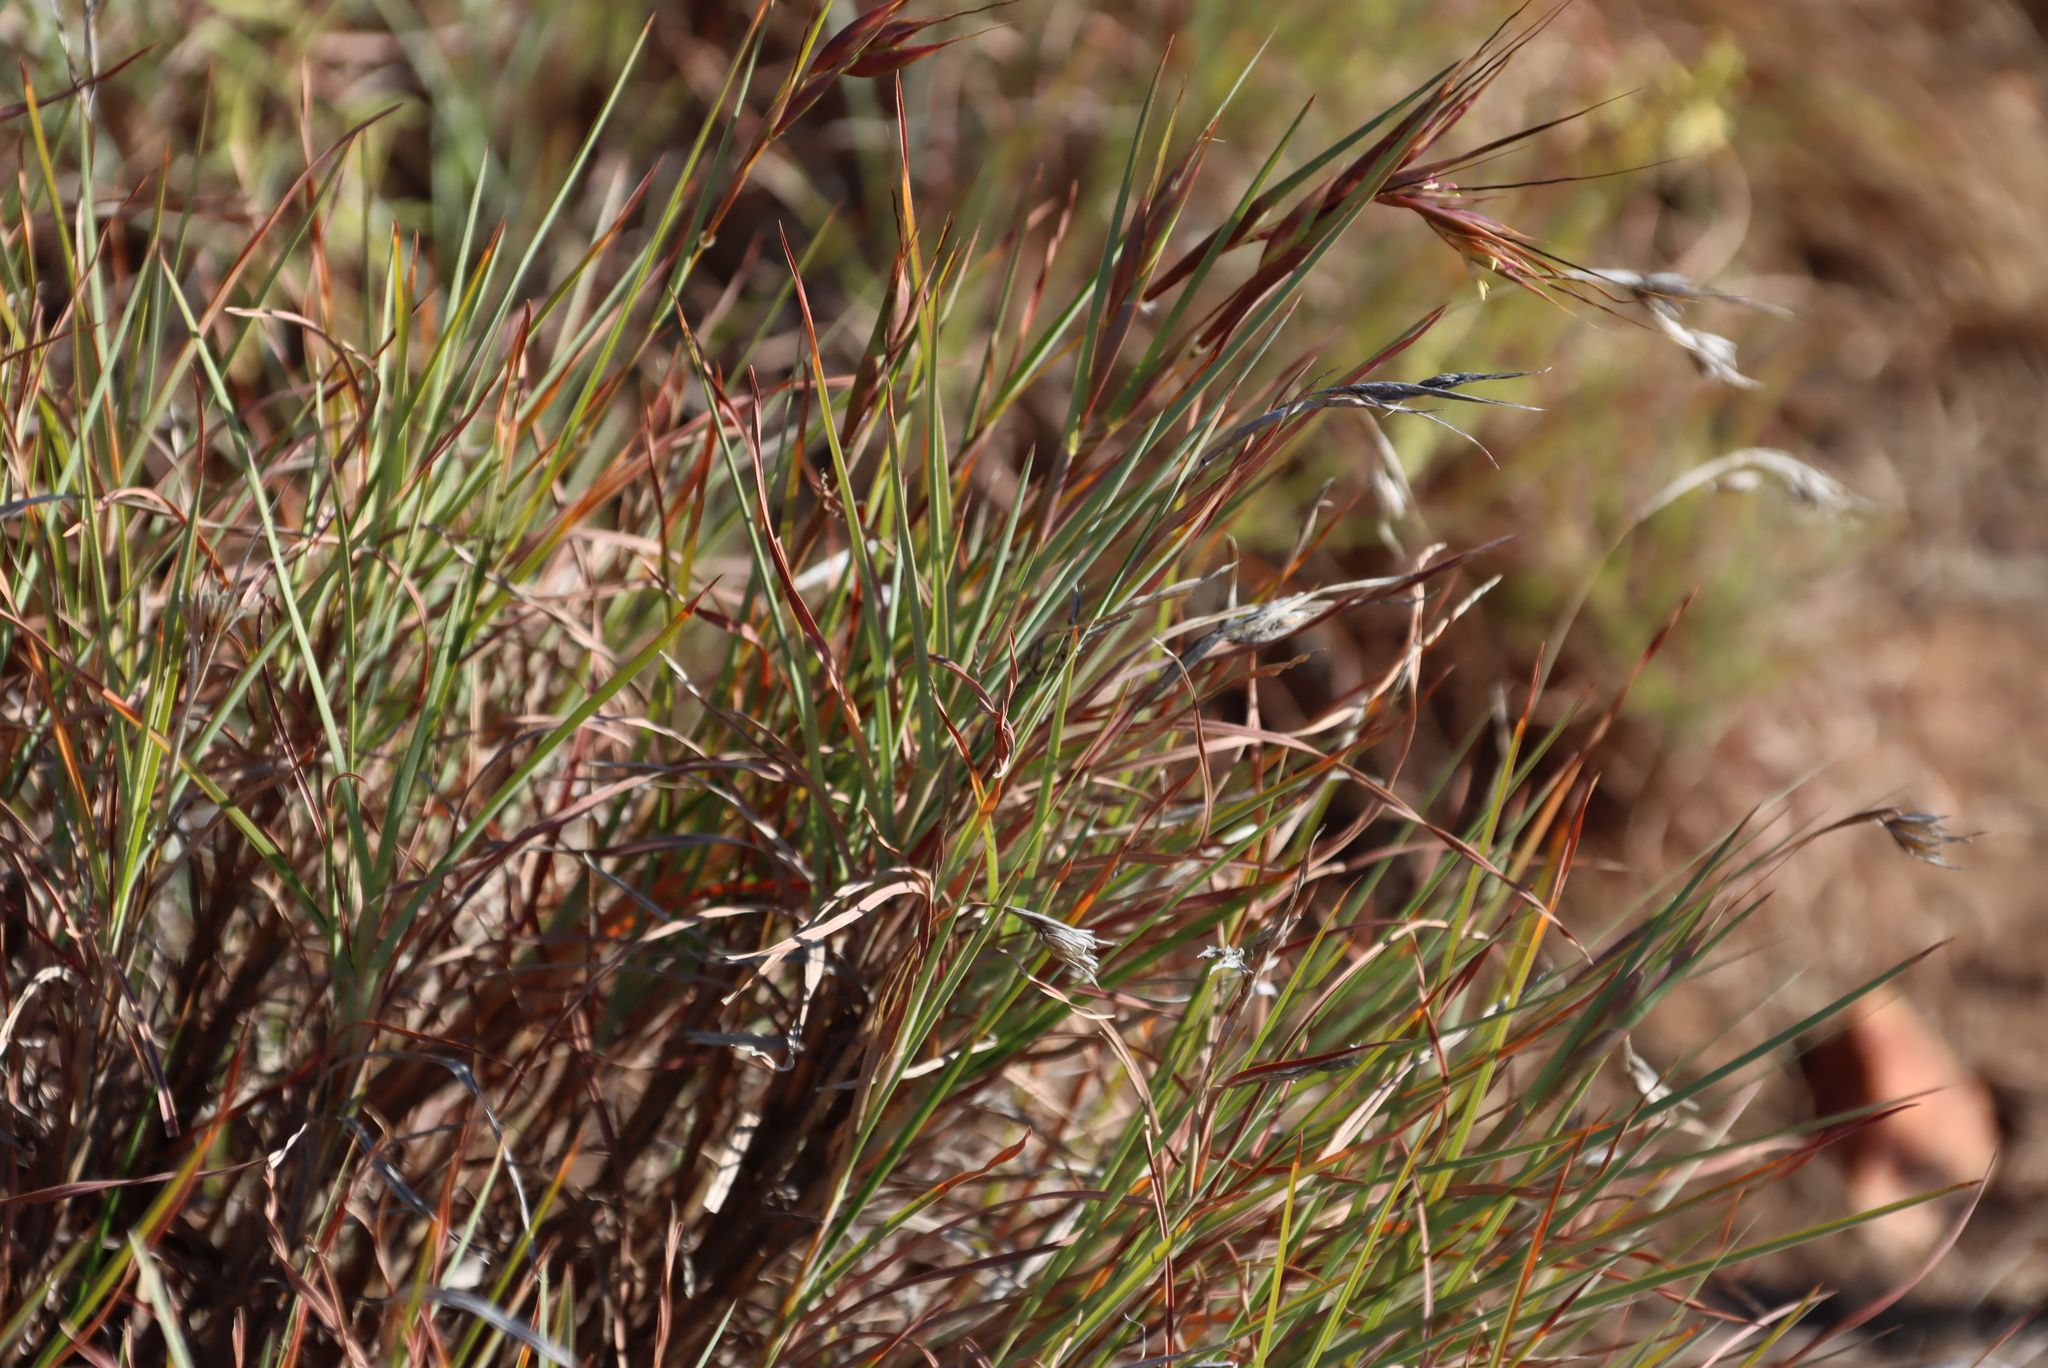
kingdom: Plantae
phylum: Tracheophyta
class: Liliopsida
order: Poales
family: Poaceae
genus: Themeda
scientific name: Themeda triandra
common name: Kangaroo grass
